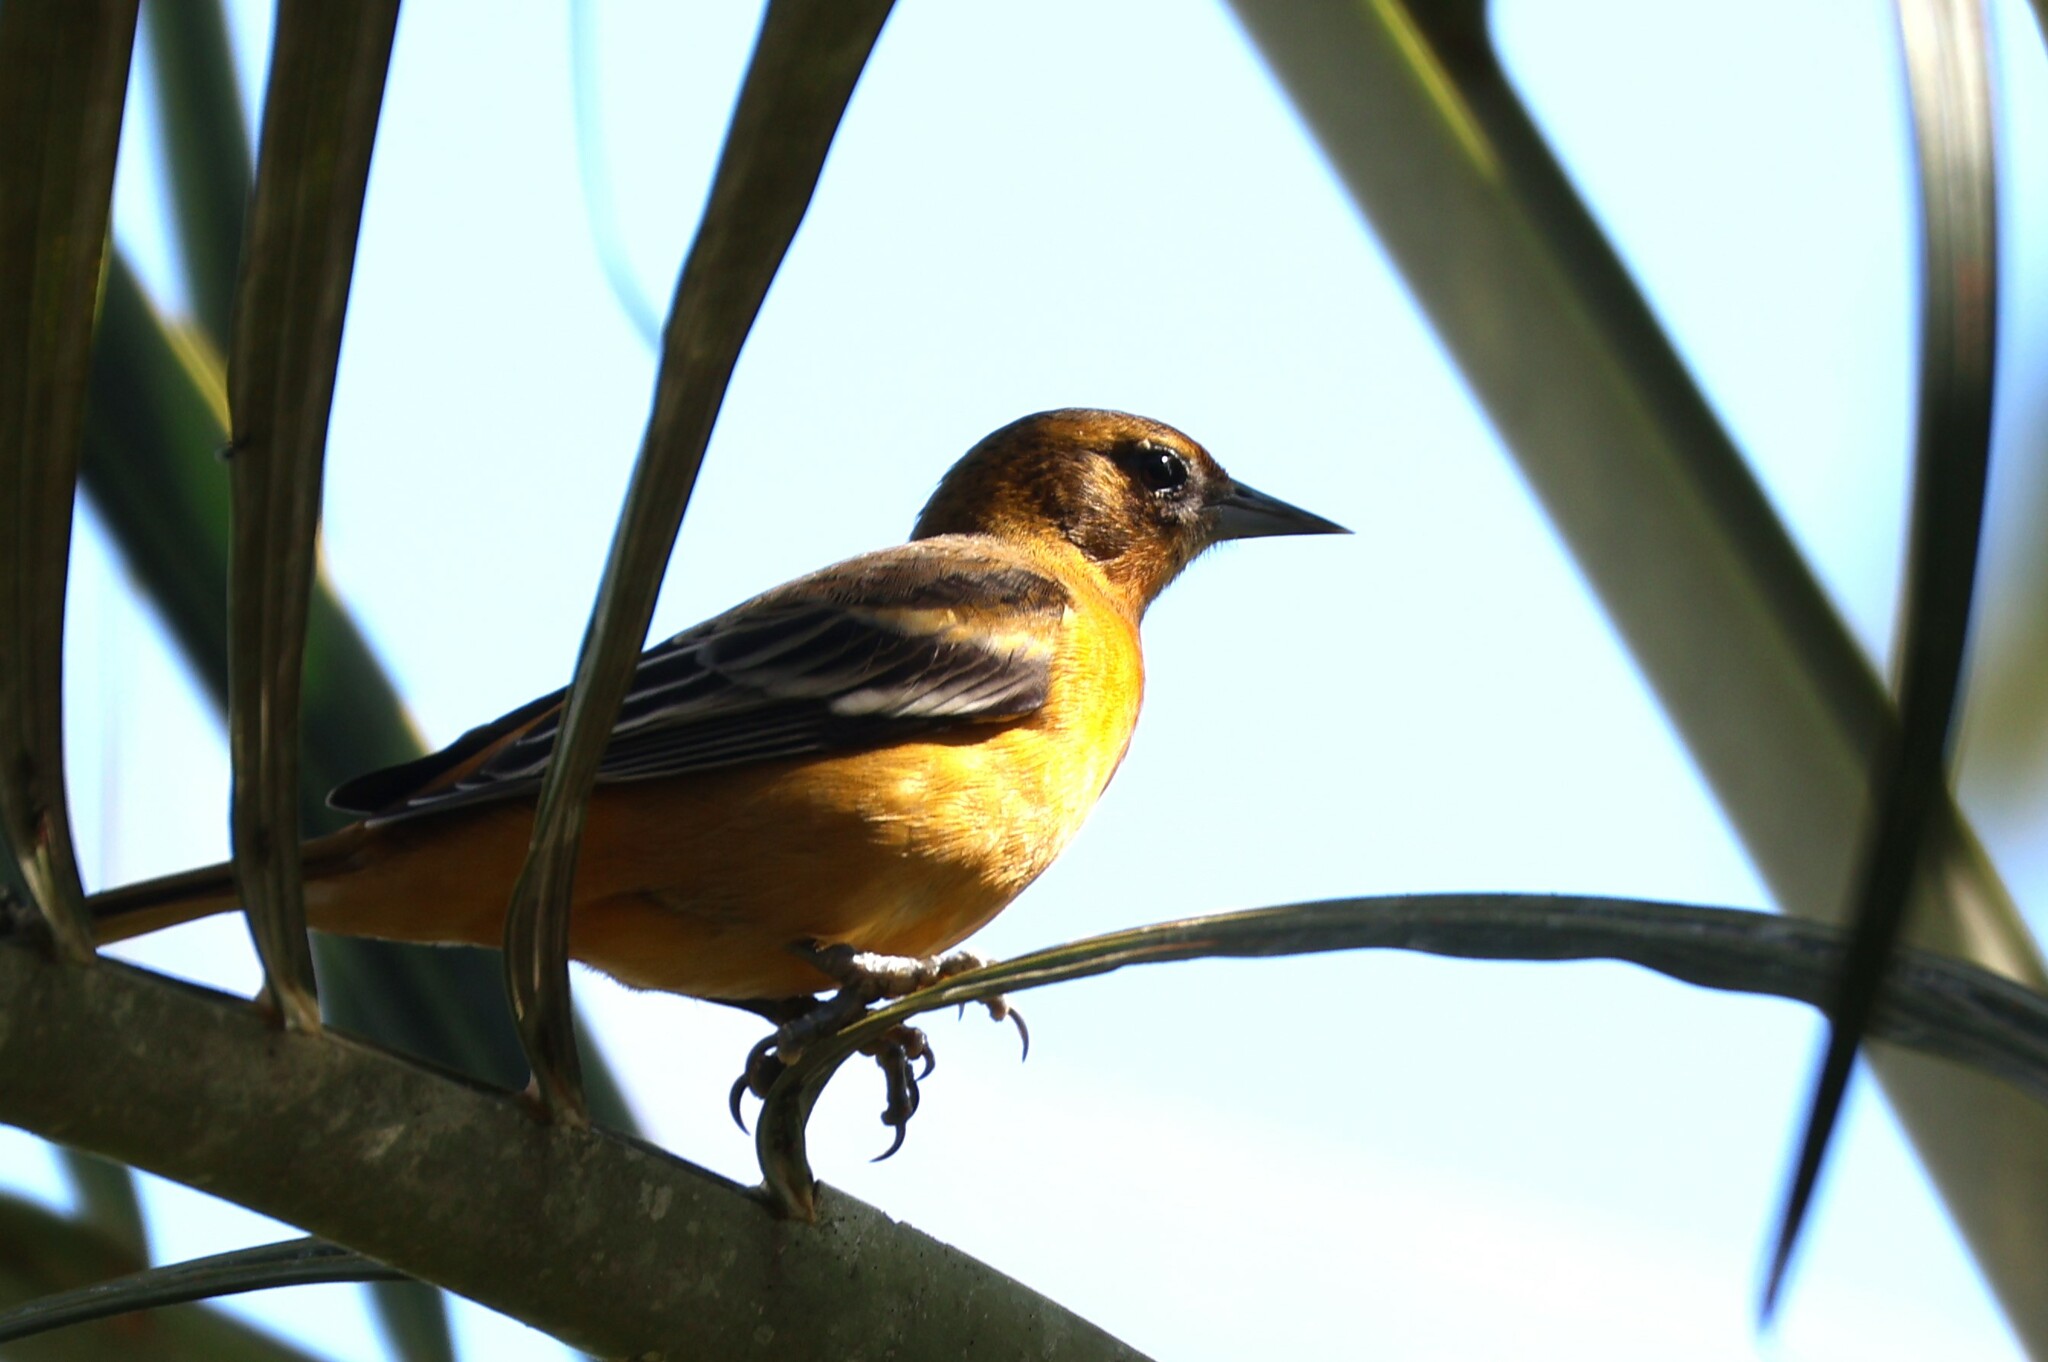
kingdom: Animalia
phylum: Chordata
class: Aves
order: Passeriformes
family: Icteridae
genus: Icterus
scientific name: Icterus galbula
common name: Baltimore oriole
